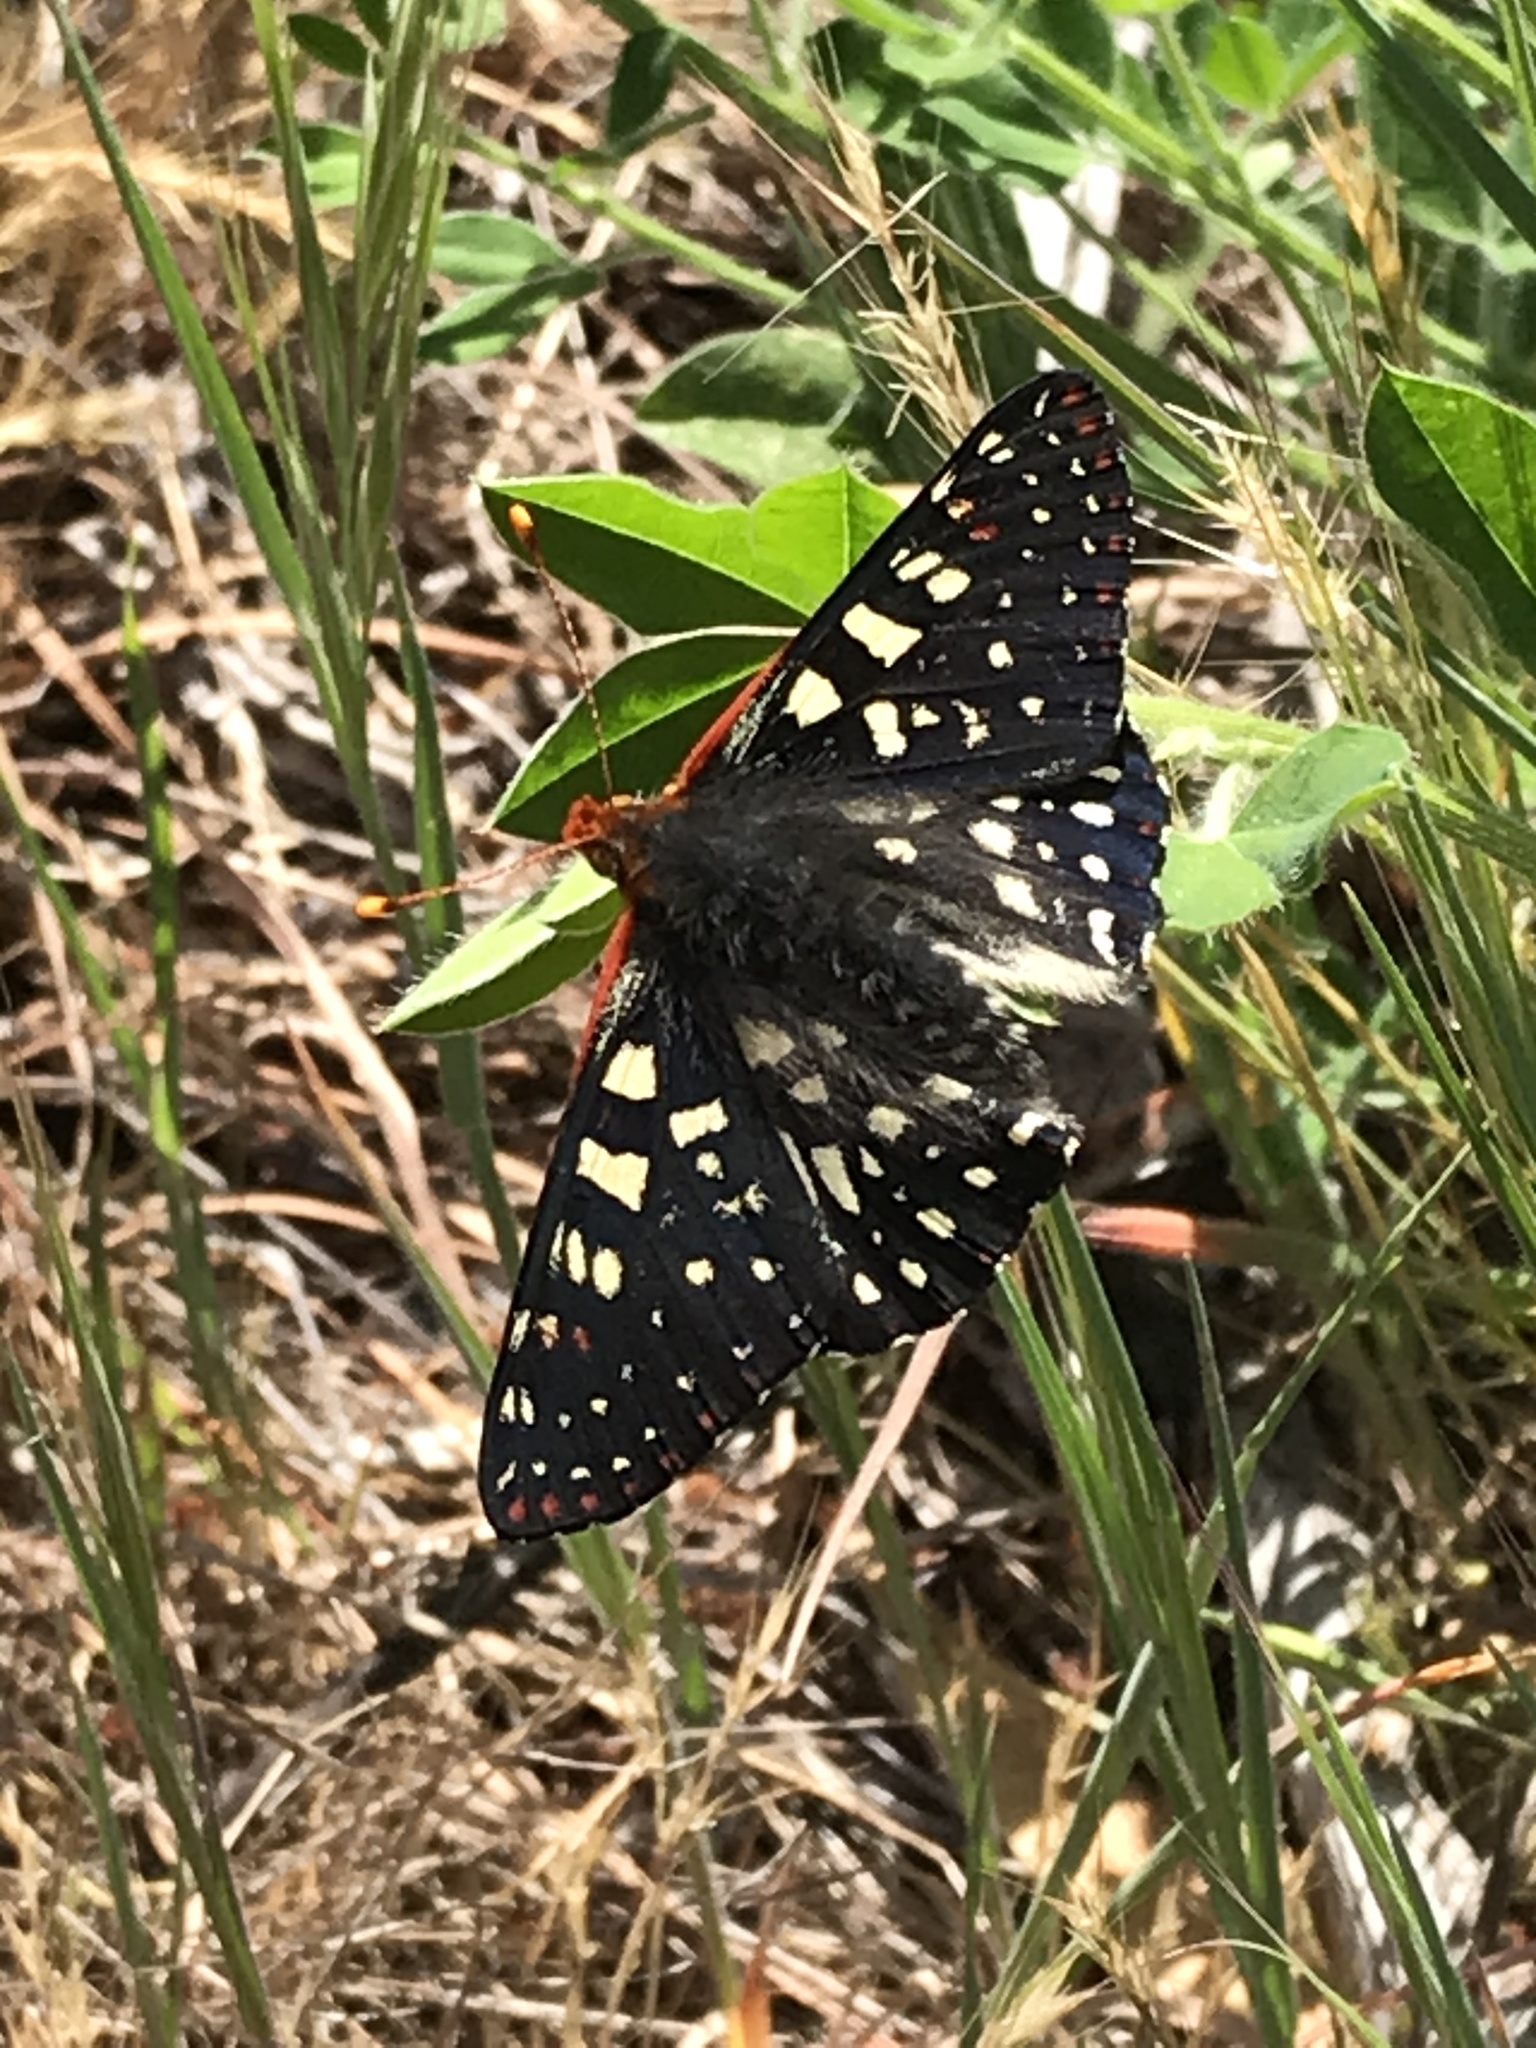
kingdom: Animalia
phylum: Arthropoda
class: Insecta
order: Lepidoptera
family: Nymphalidae
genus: Occidryas
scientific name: Occidryas chalcedona
